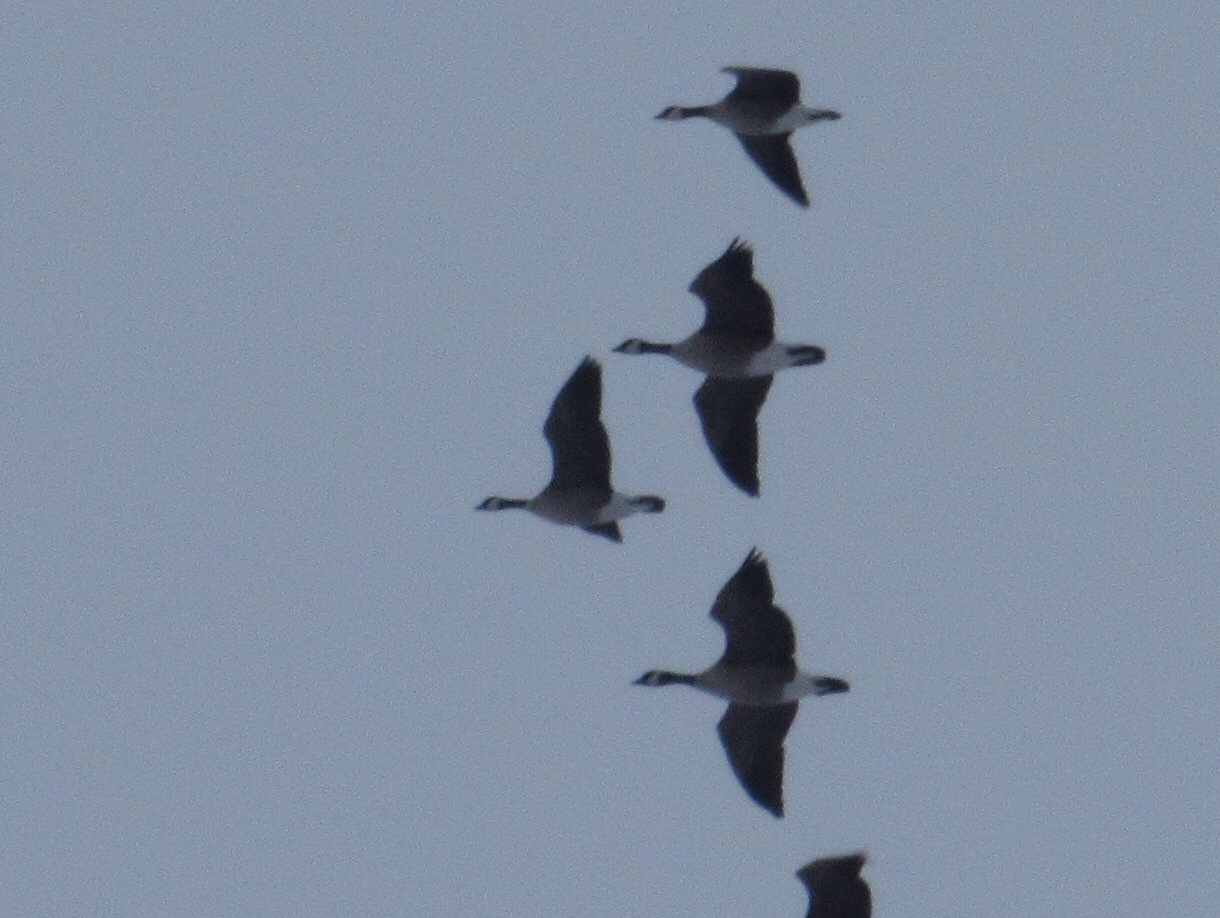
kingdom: Animalia
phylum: Chordata
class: Aves
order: Anseriformes
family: Anatidae
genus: Branta
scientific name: Branta canadensis
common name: Canada goose
